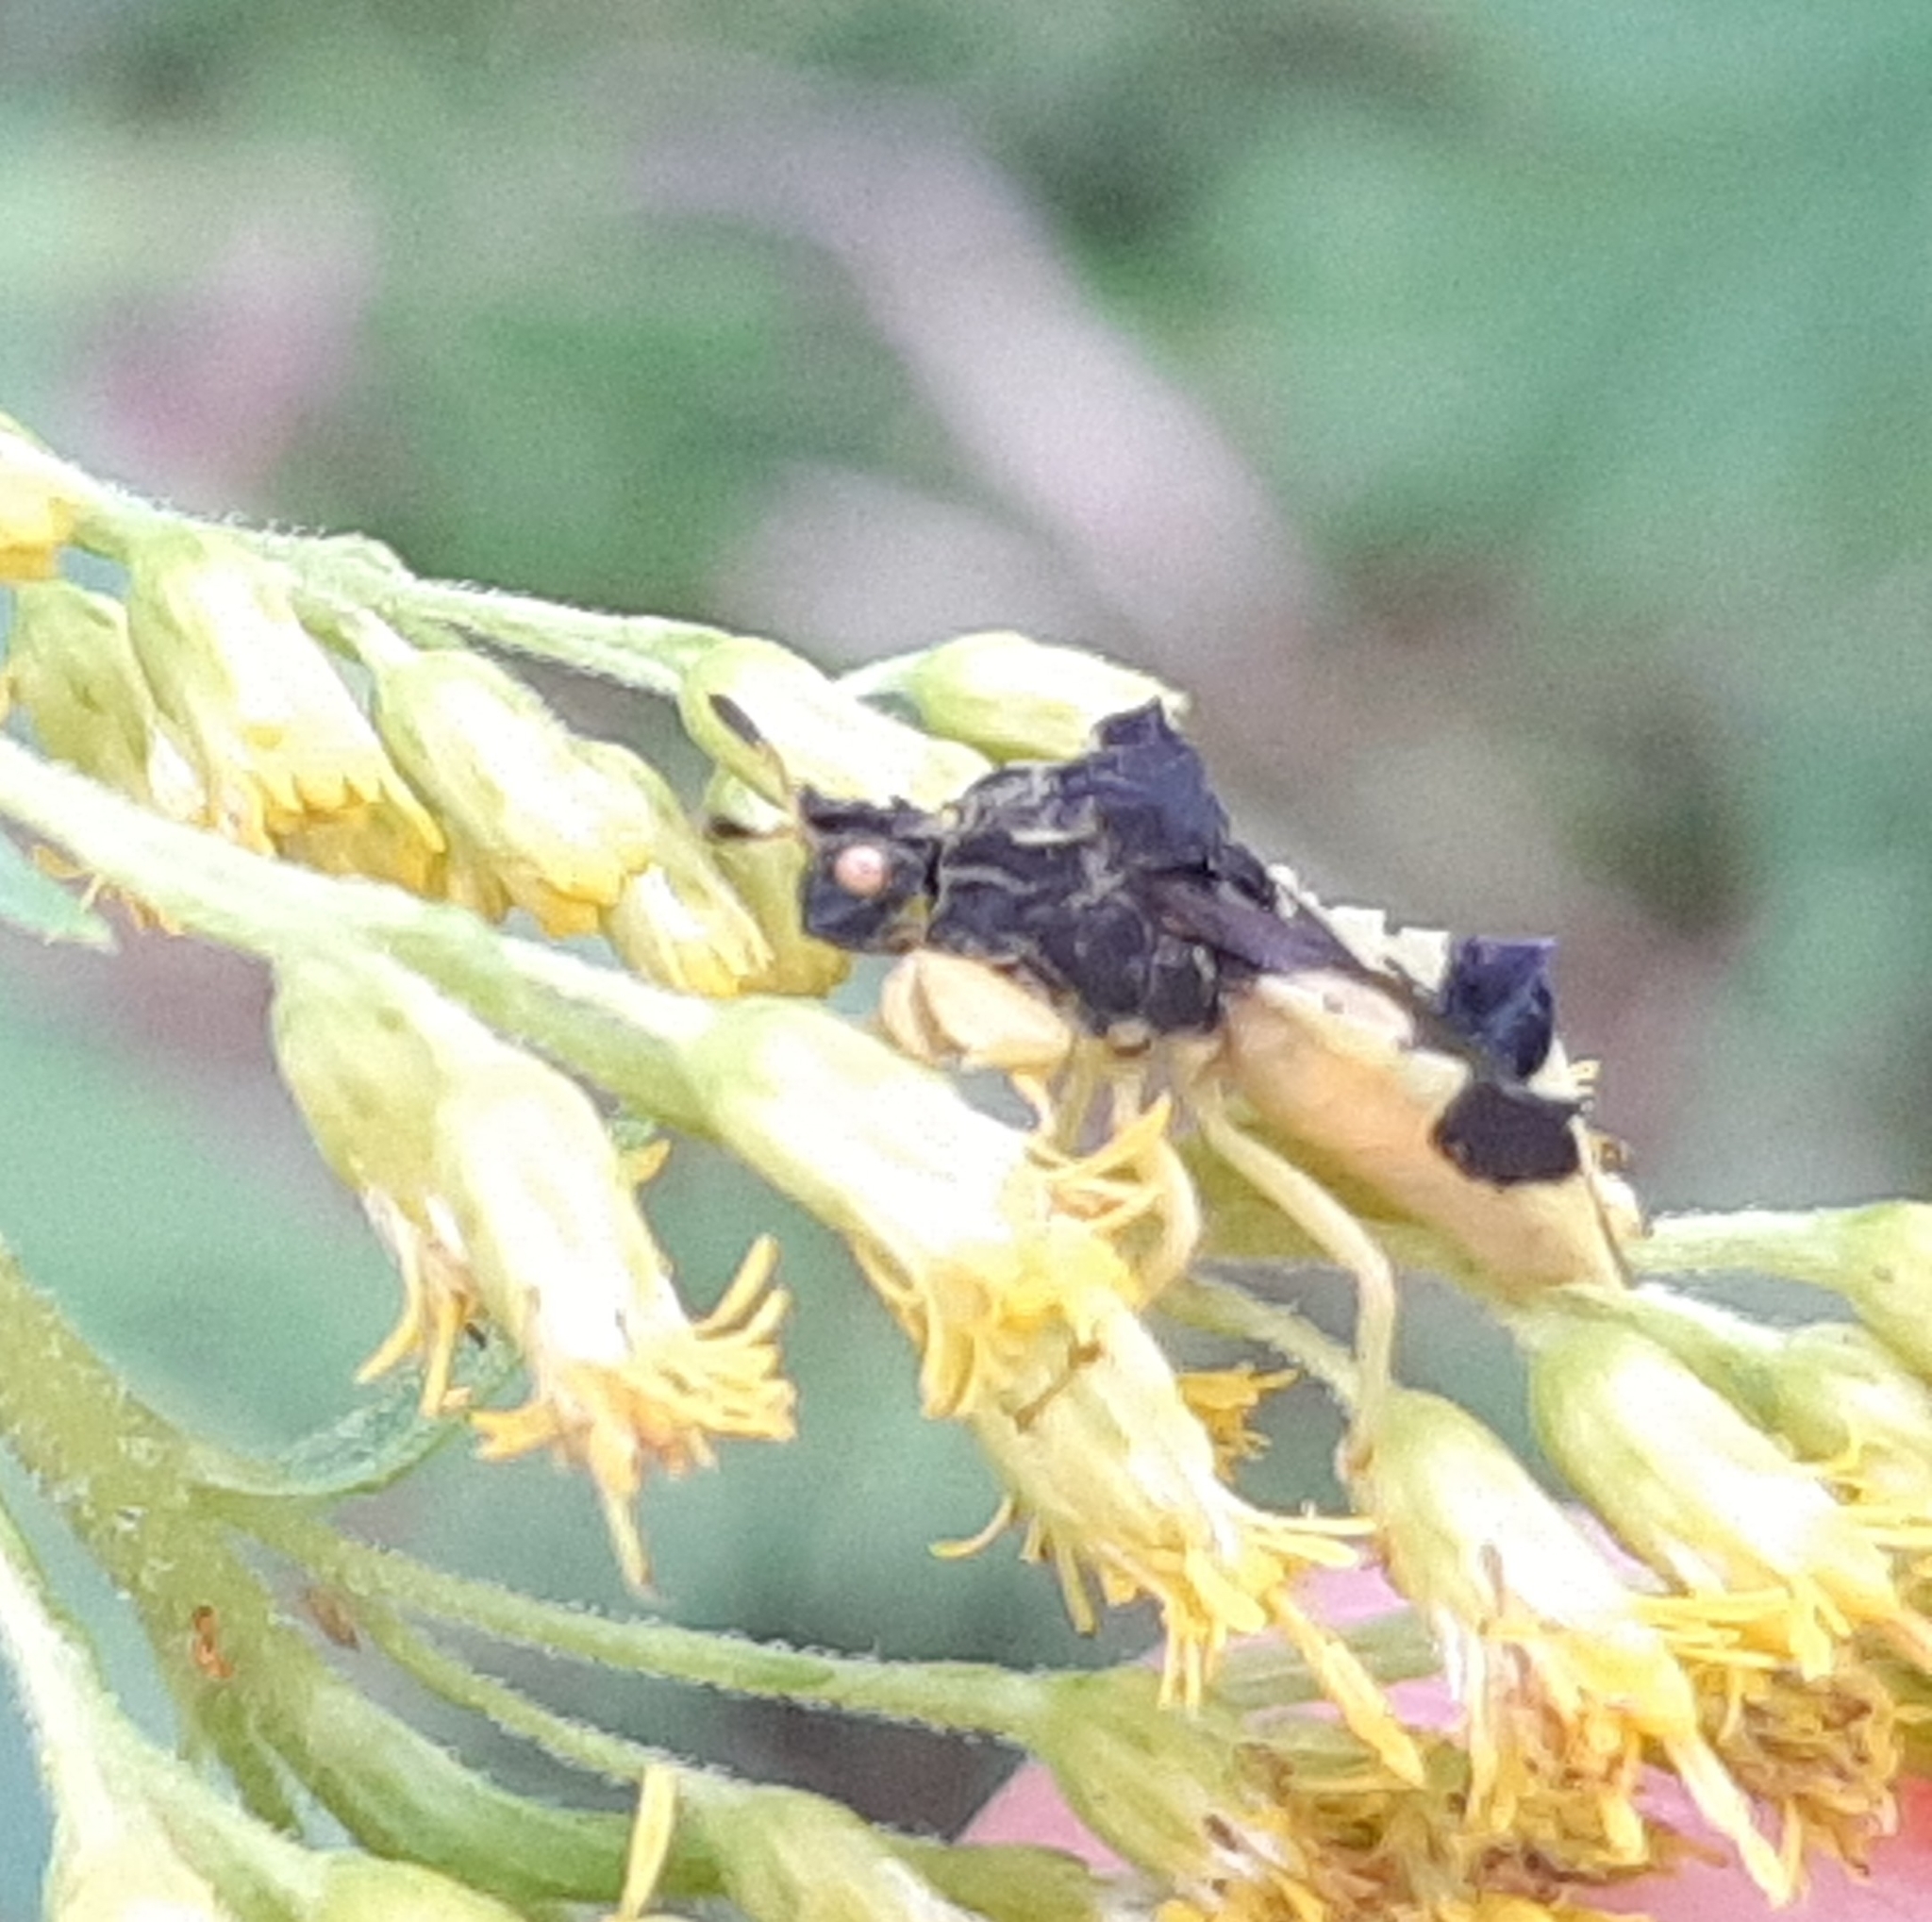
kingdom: Animalia
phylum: Arthropoda
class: Insecta
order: Hemiptera
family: Reduviidae
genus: Phymata
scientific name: Phymata americana
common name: Jagged ambush bug
